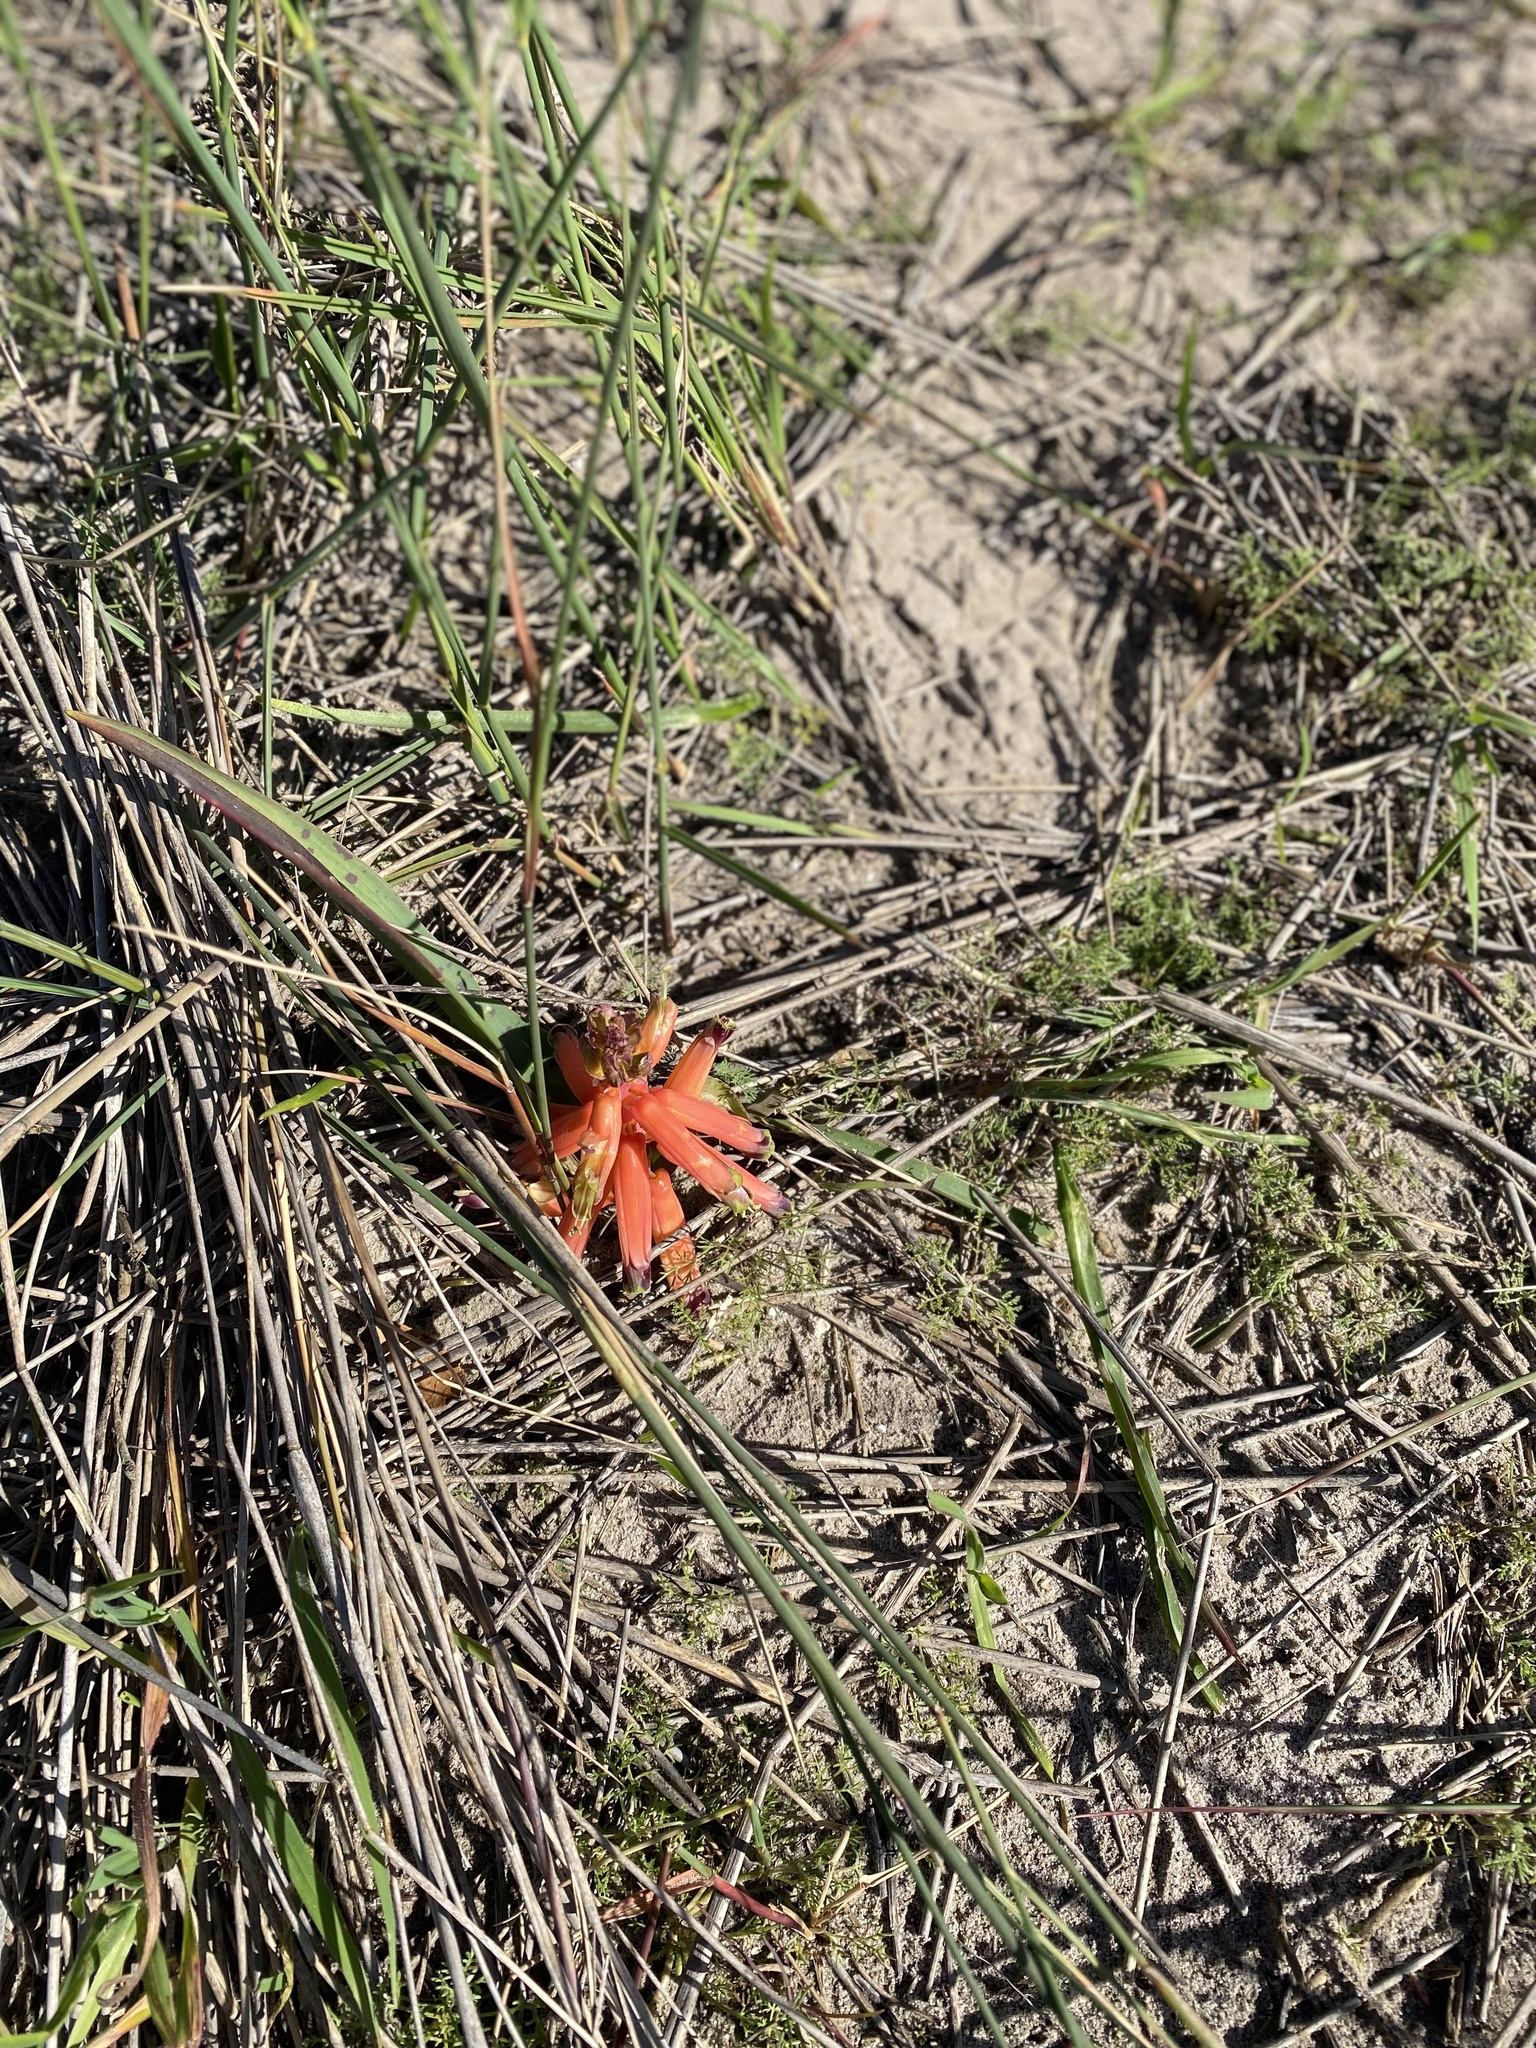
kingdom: Plantae
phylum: Tracheophyta
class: Liliopsida
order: Asparagales
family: Asparagaceae
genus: Lachenalia
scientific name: Lachenalia bulbifera
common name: Red lachenalia
